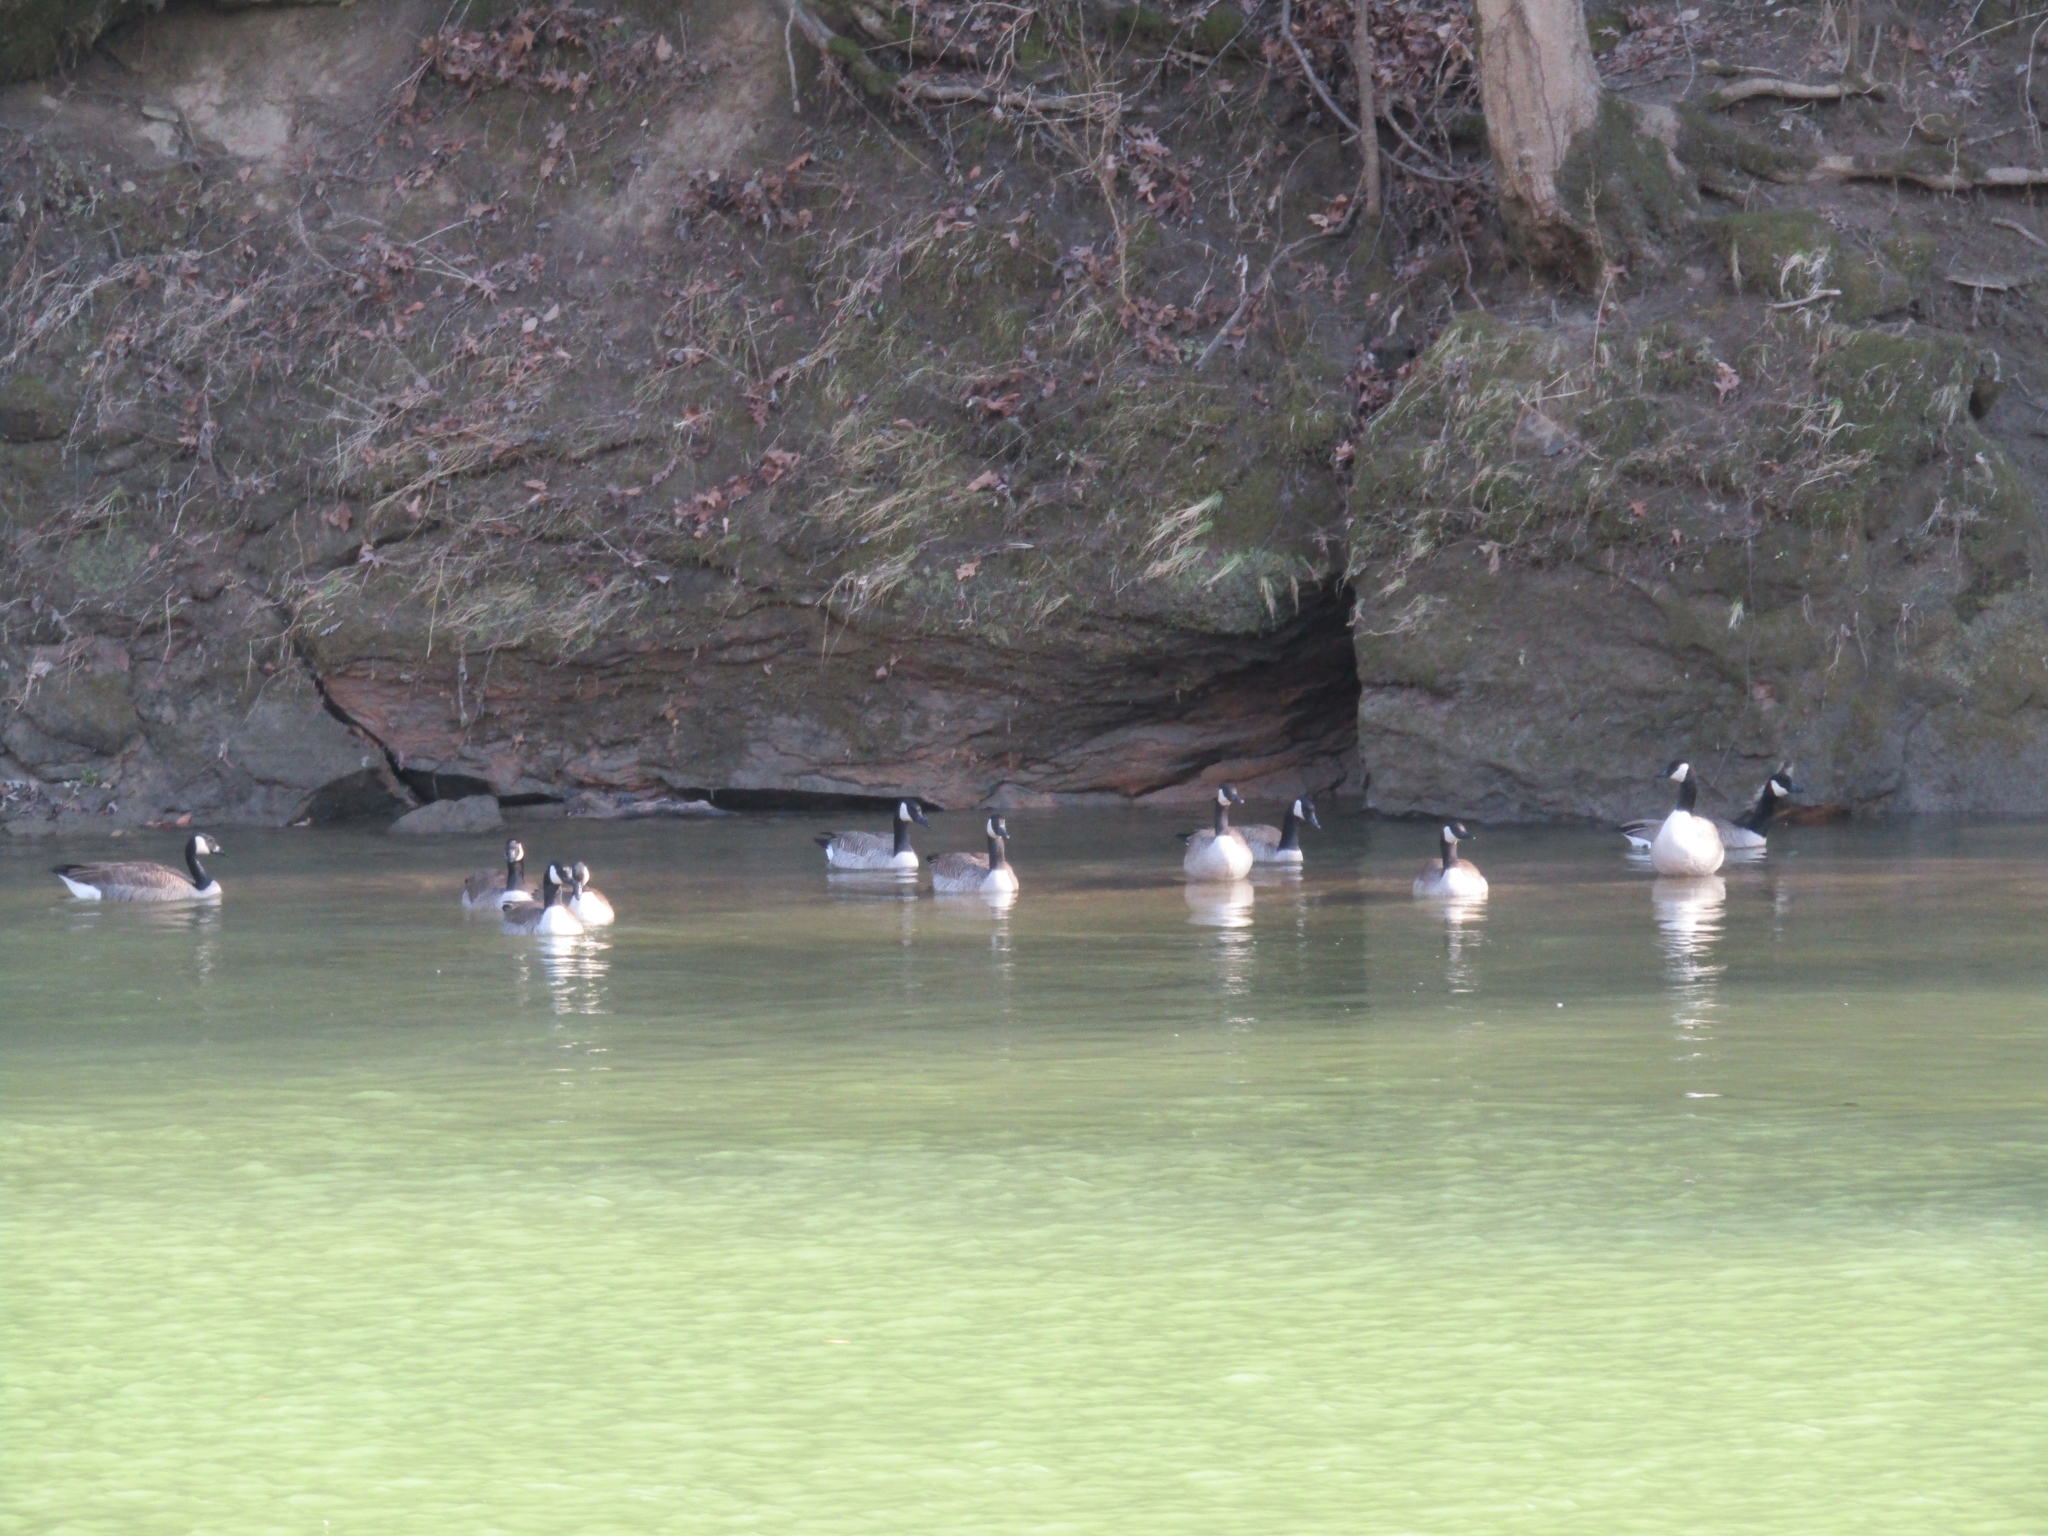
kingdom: Animalia
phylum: Chordata
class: Aves
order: Anseriformes
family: Anatidae
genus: Branta
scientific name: Branta canadensis
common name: Canada goose
